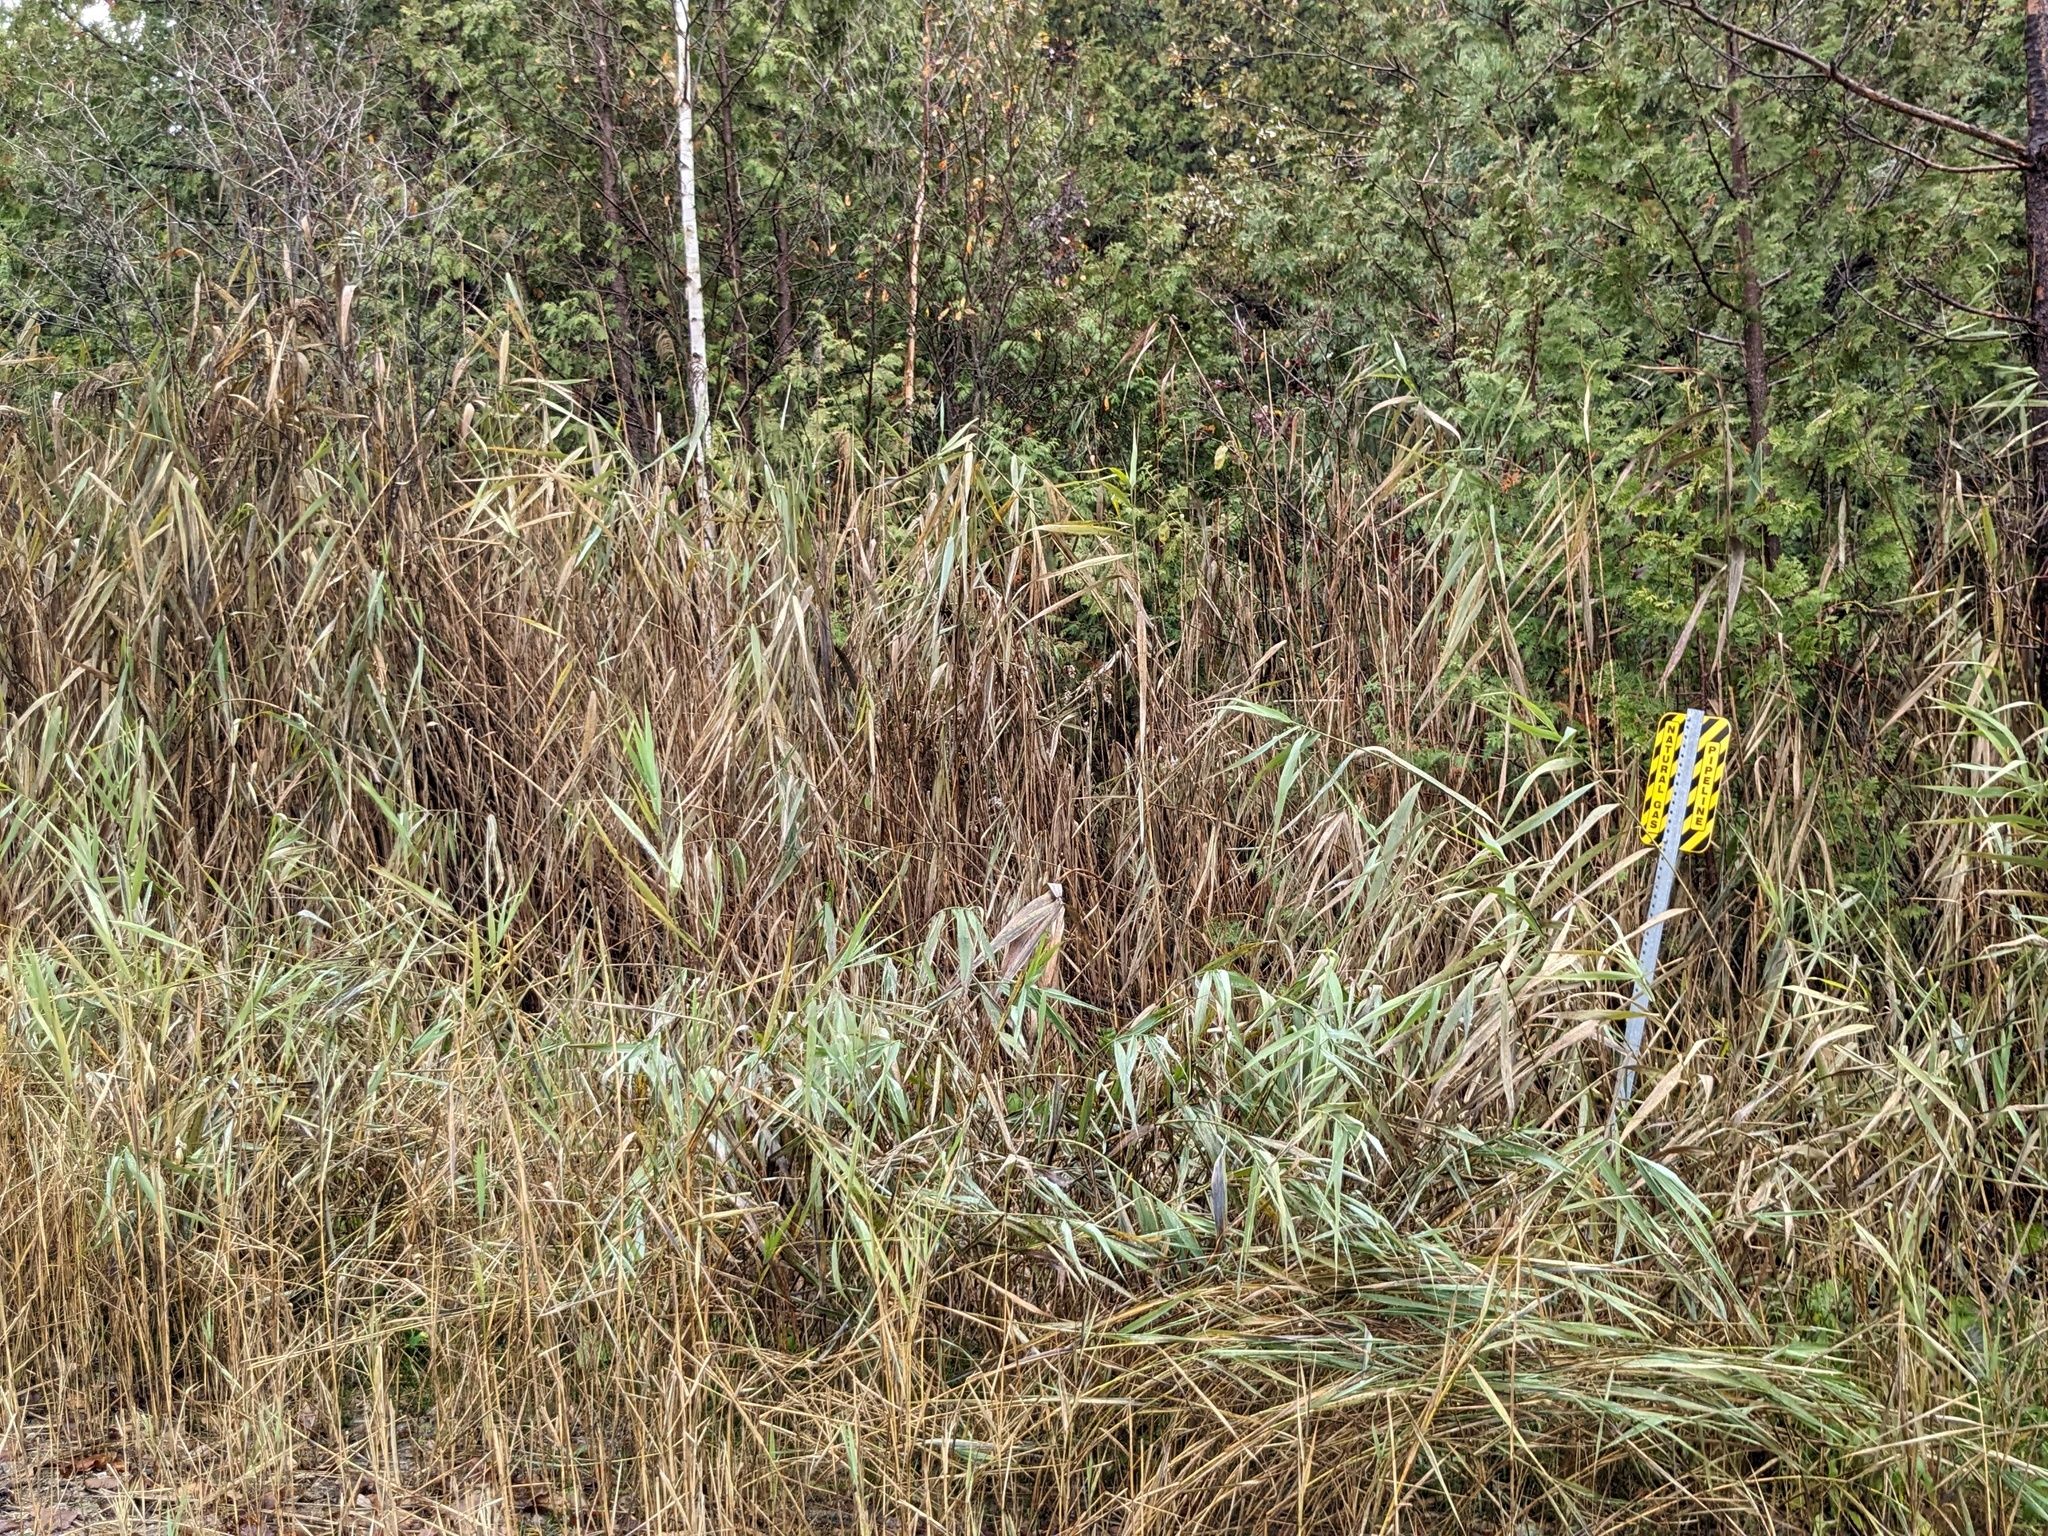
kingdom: Plantae
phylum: Tracheophyta
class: Liliopsida
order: Poales
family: Poaceae
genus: Phragmites
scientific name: Phragmites australis
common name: Common reed
